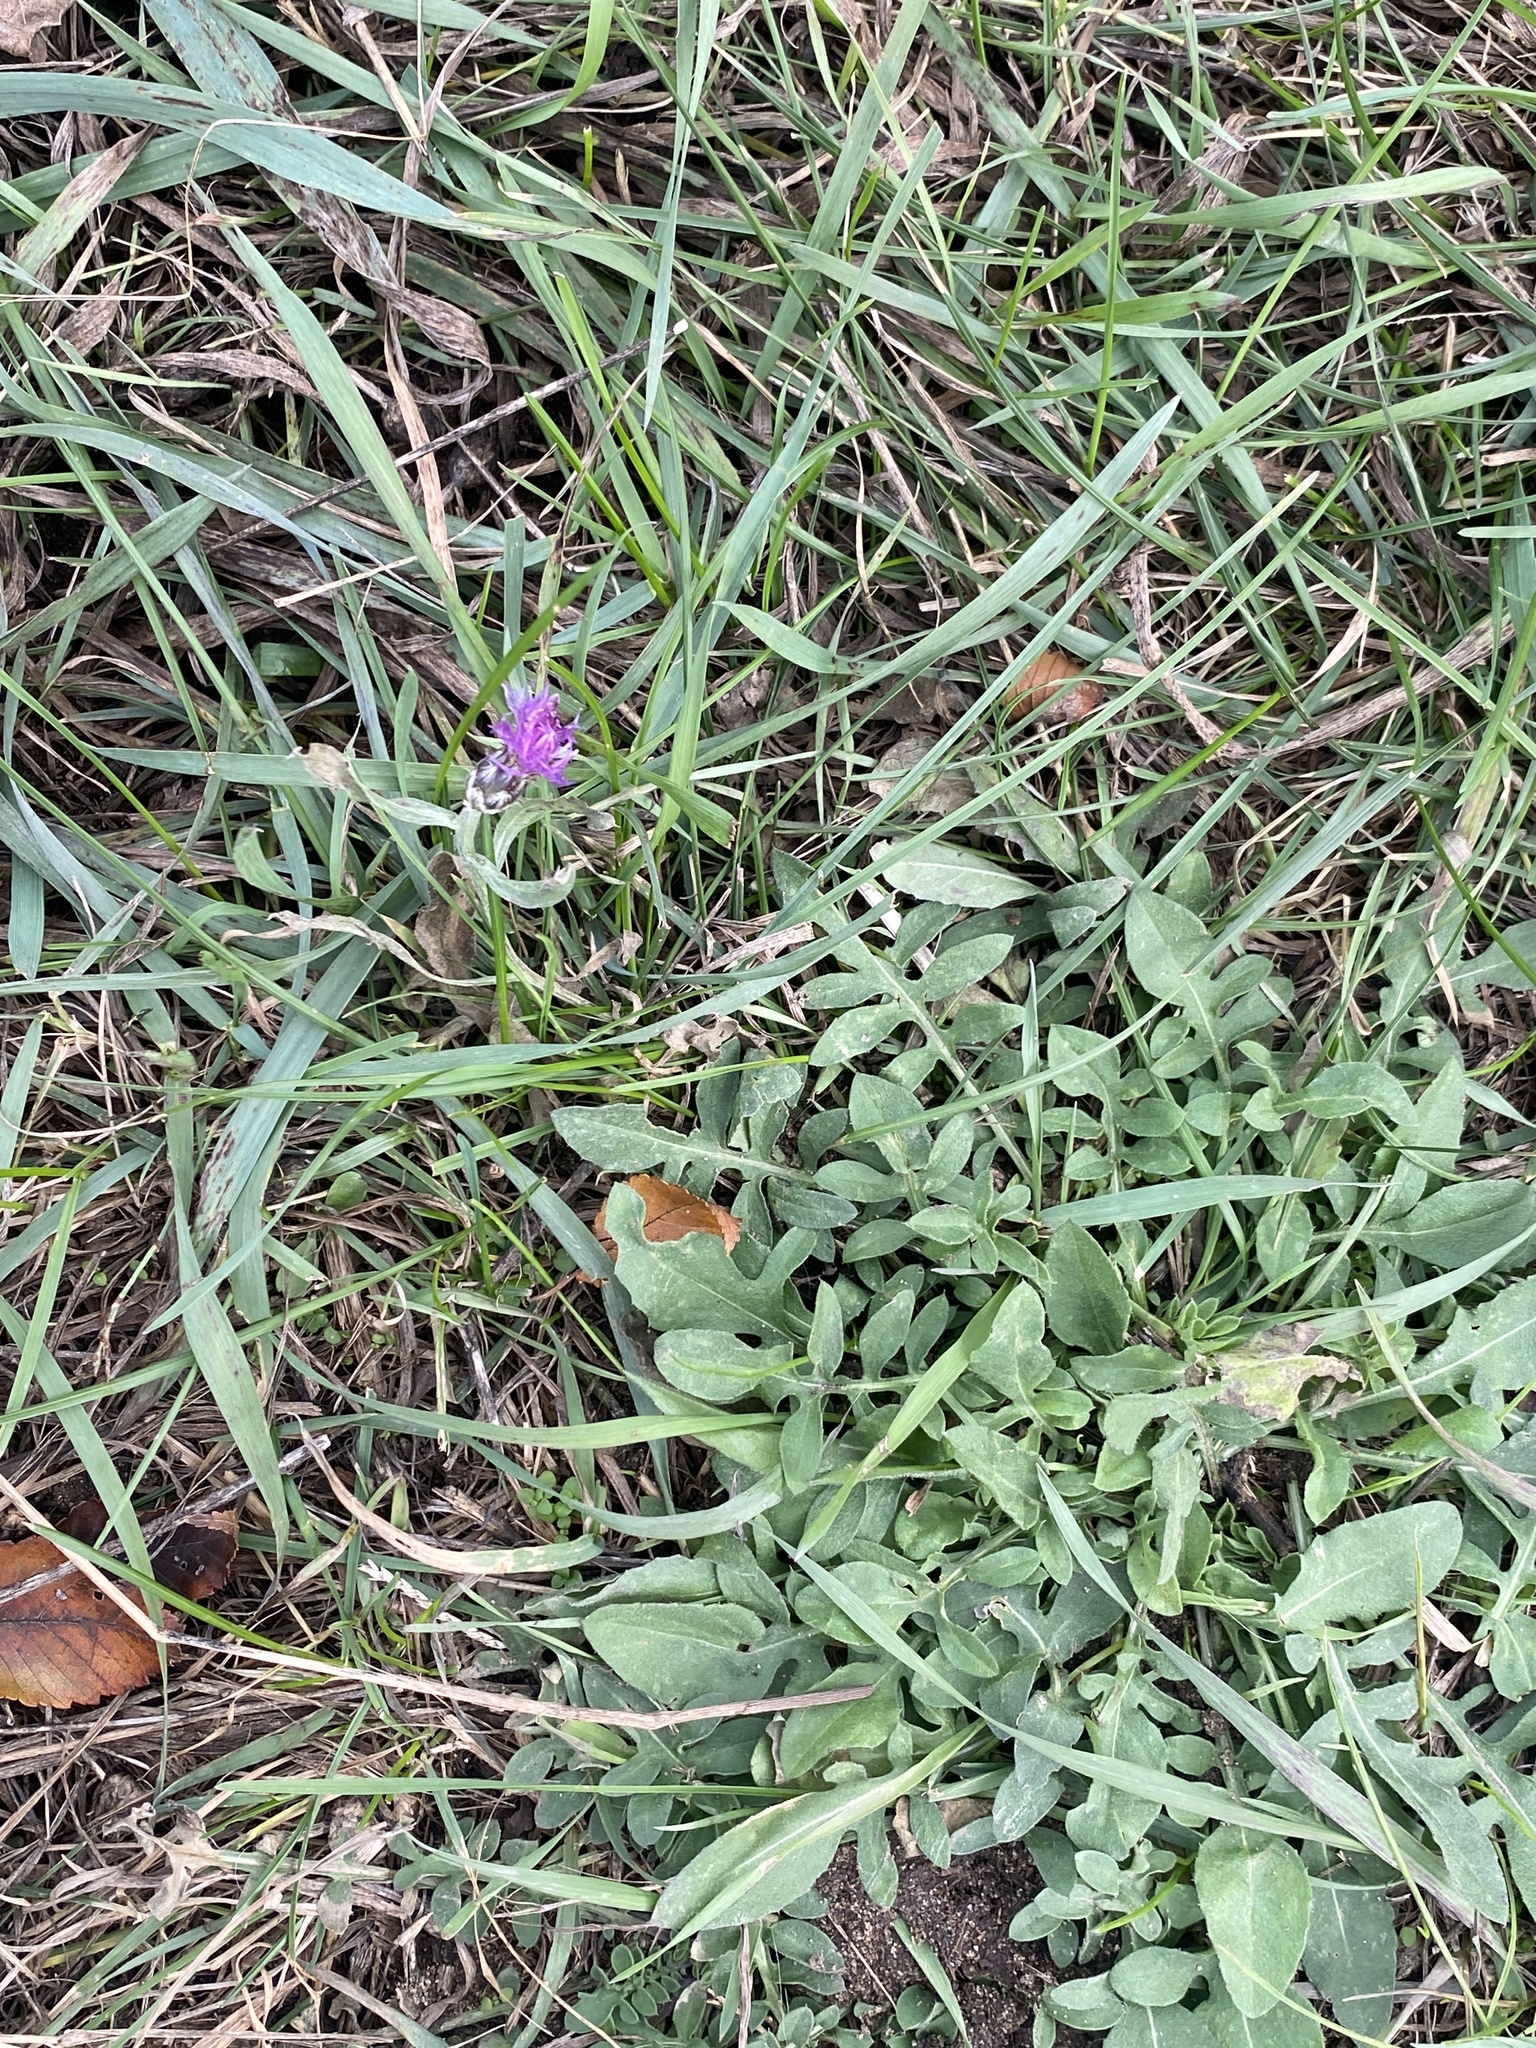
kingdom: Plantae
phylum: Tracheophyta
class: Magnoliopsida
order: Asterales
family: Asteraceae
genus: Centaurea
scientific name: Centaurea stoebe
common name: Spotted knapweed
